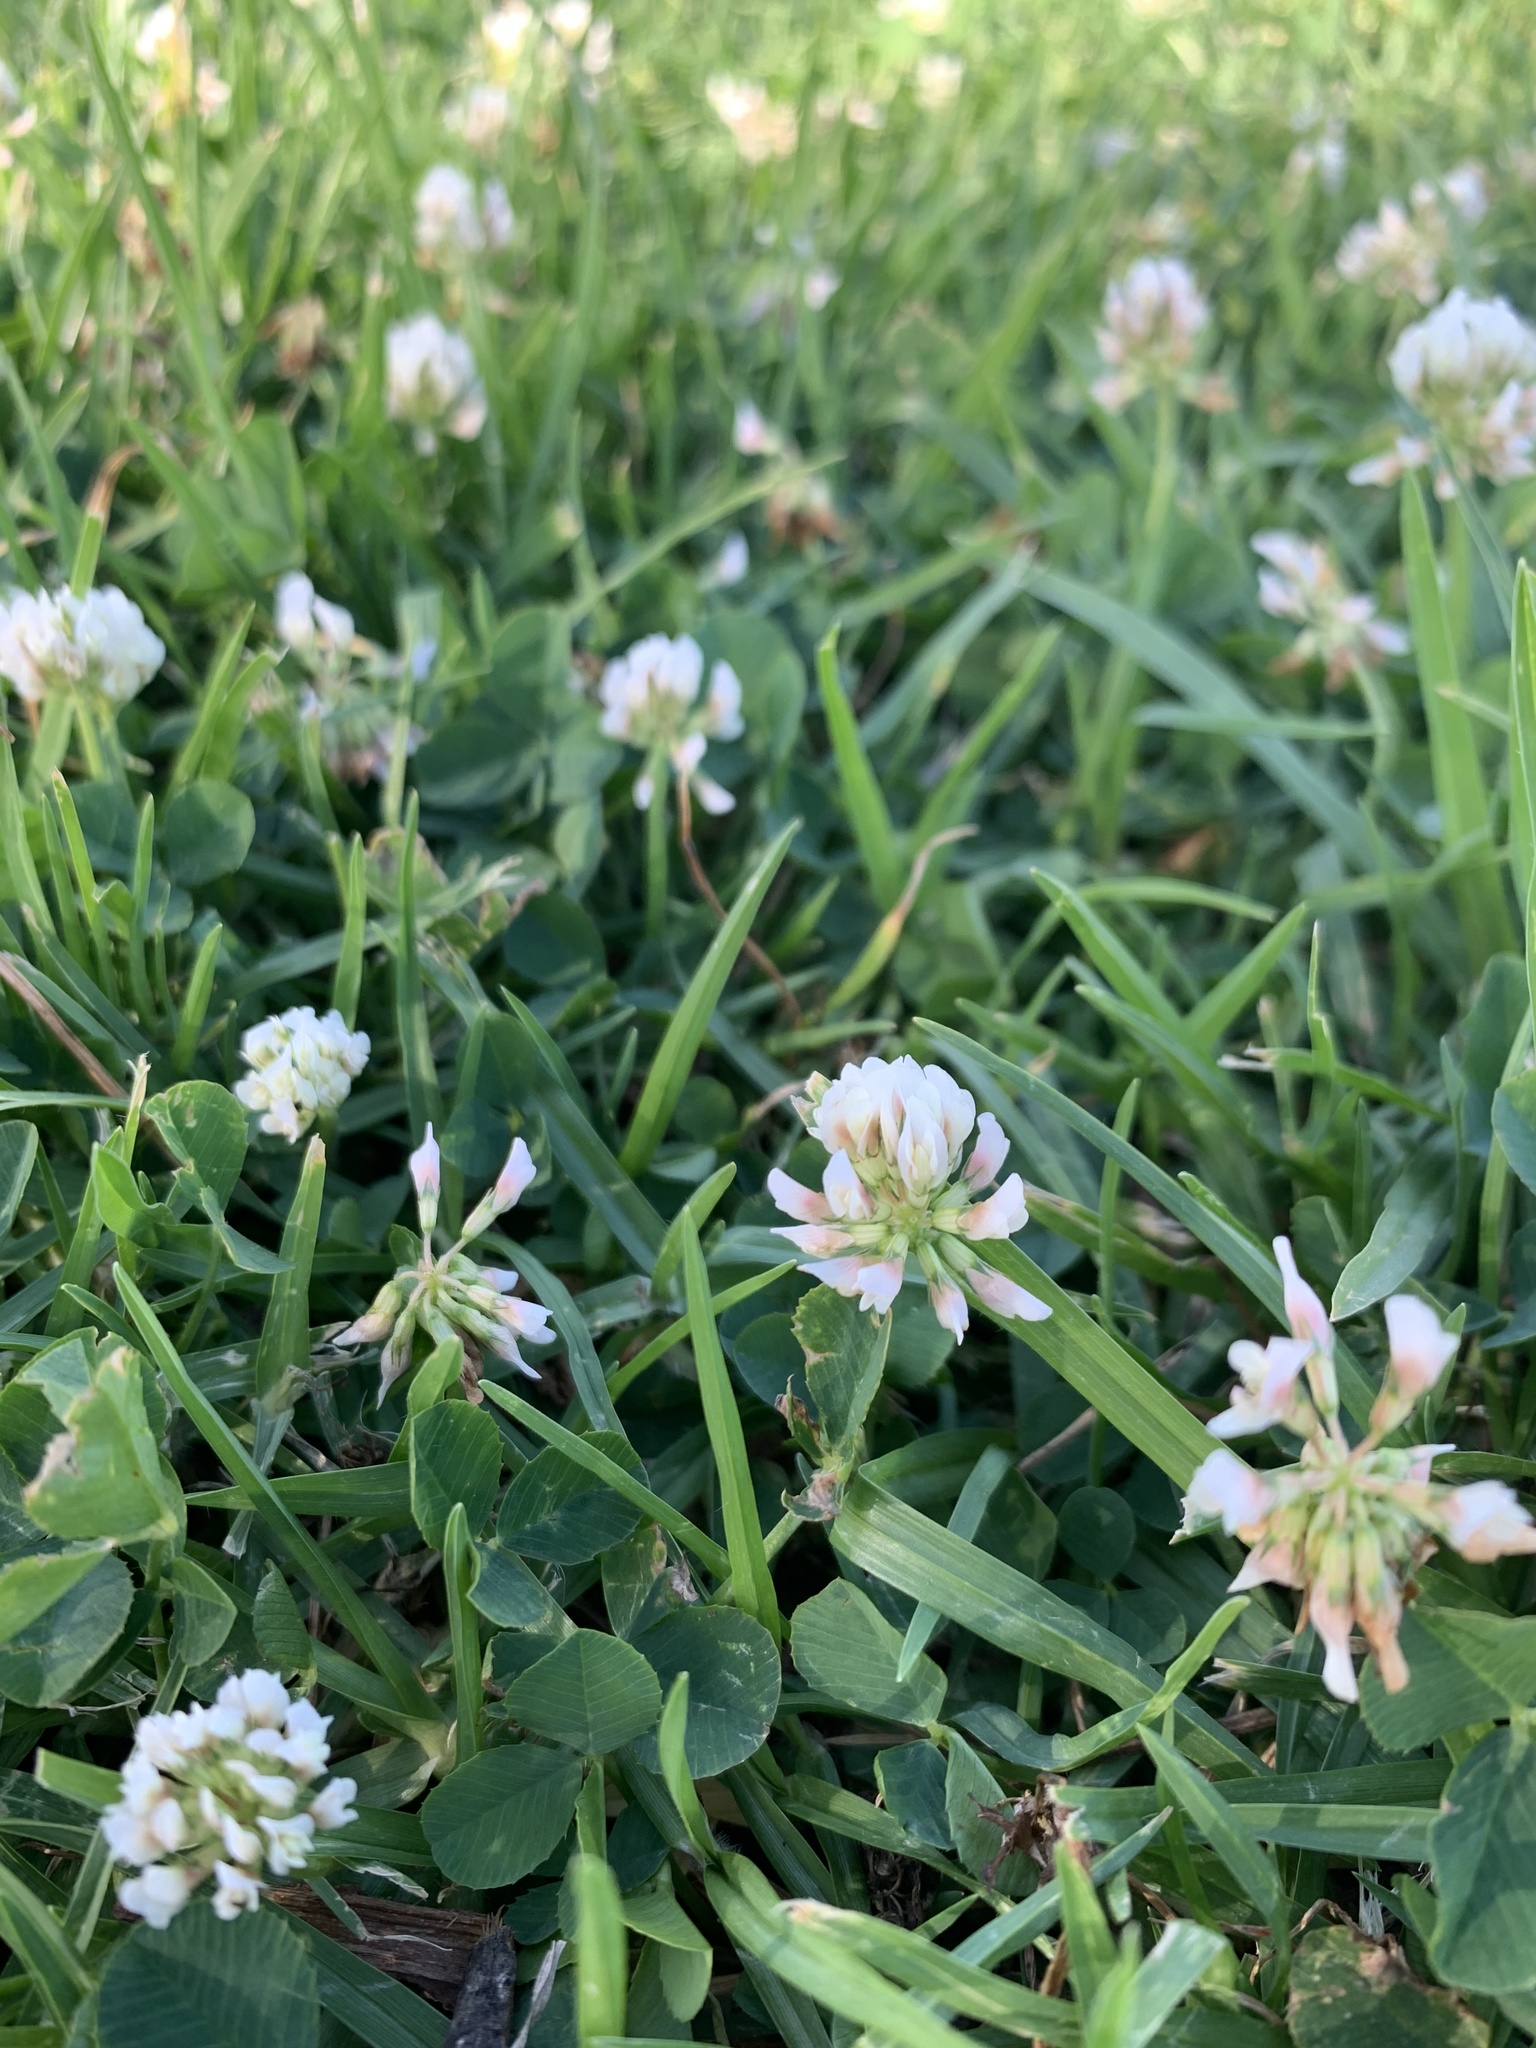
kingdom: Plantae
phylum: Tracheophyta
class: Magnoliopsida
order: Fabales
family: Fabaceae
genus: Trifolium
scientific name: Trifolium repens
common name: White clover
